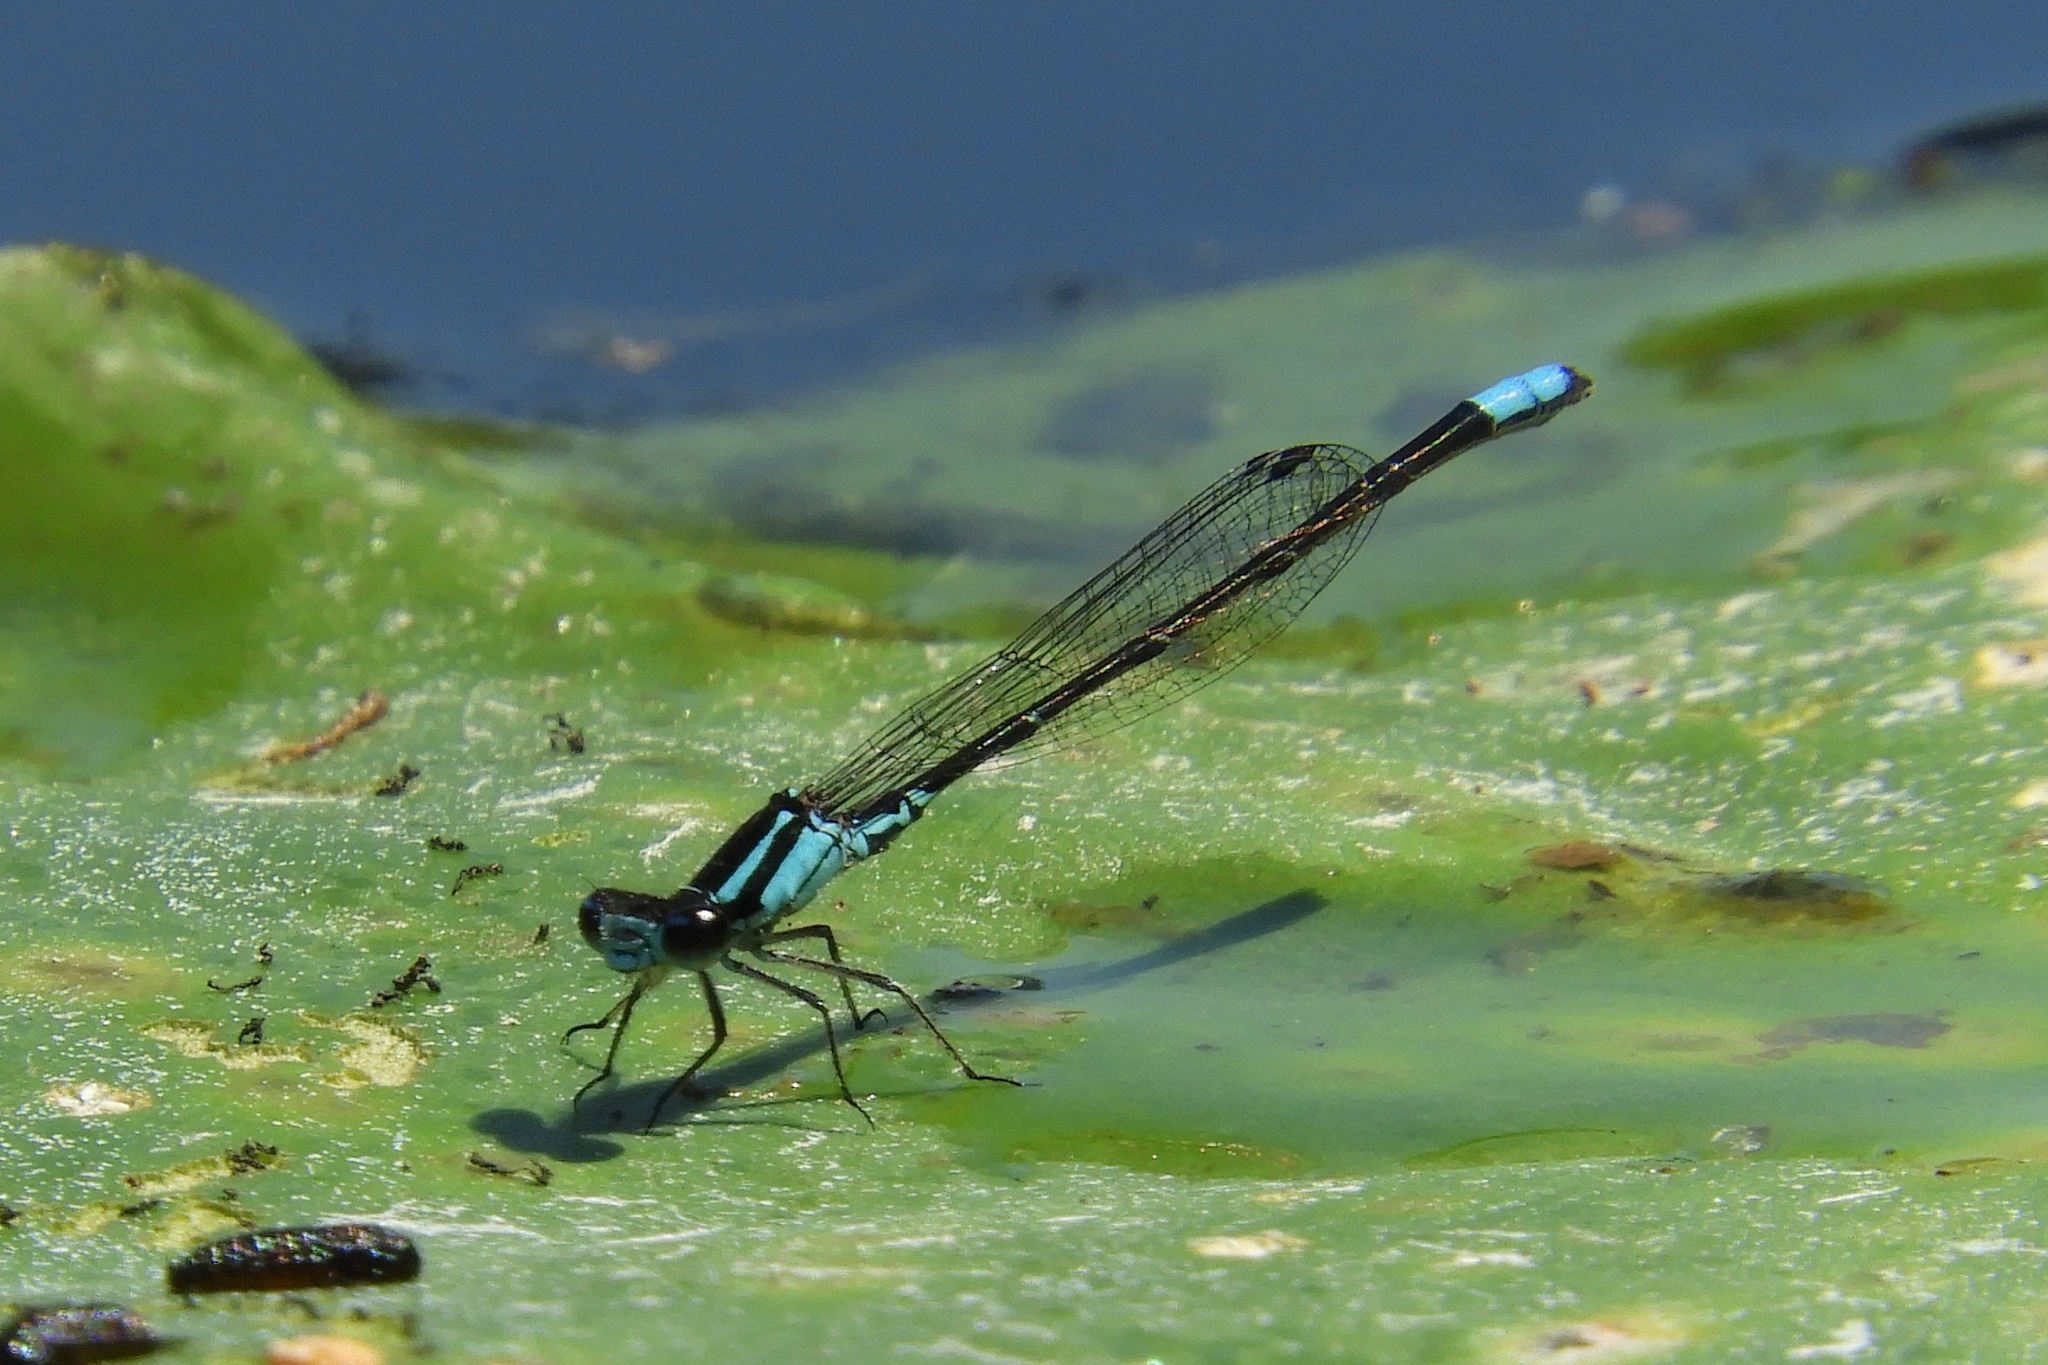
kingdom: Animalia
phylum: Arthropoda
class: Insecta
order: Odonata
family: Coenagrionidae
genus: Enallagma
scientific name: Enallagma geminatum
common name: Skimming bluet
